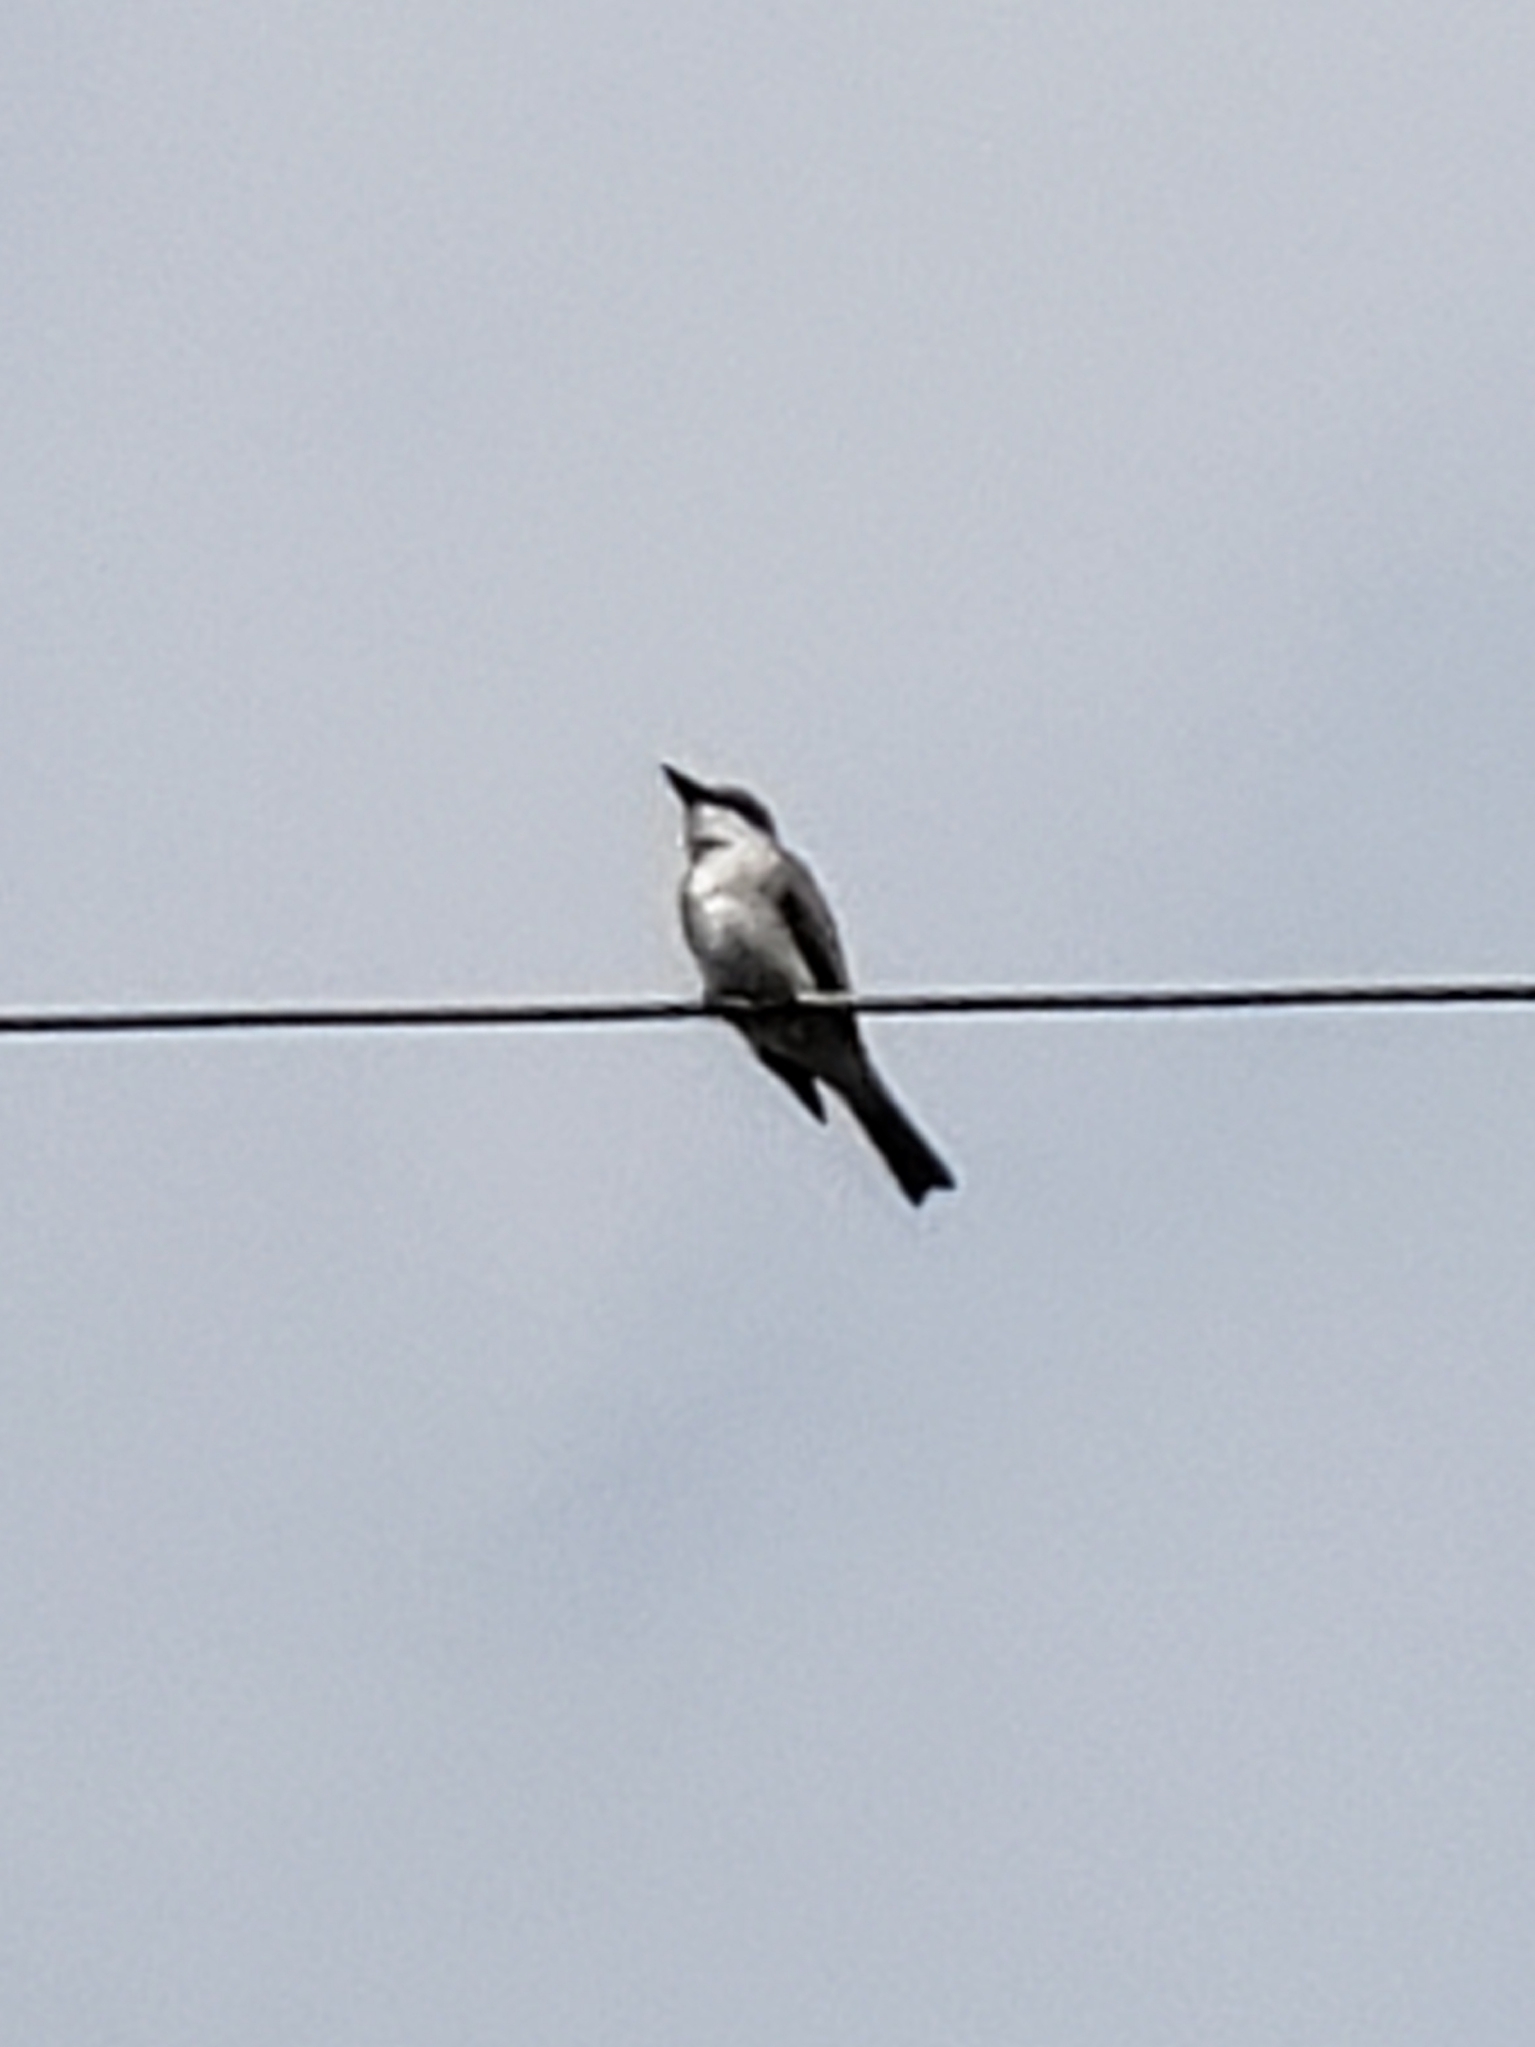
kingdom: Animalia
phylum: Chordata
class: Aves
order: Passeriformes
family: Tyrannidae
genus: Tyrannus
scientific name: Tyrannus dominicensis
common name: Gray kingbird
